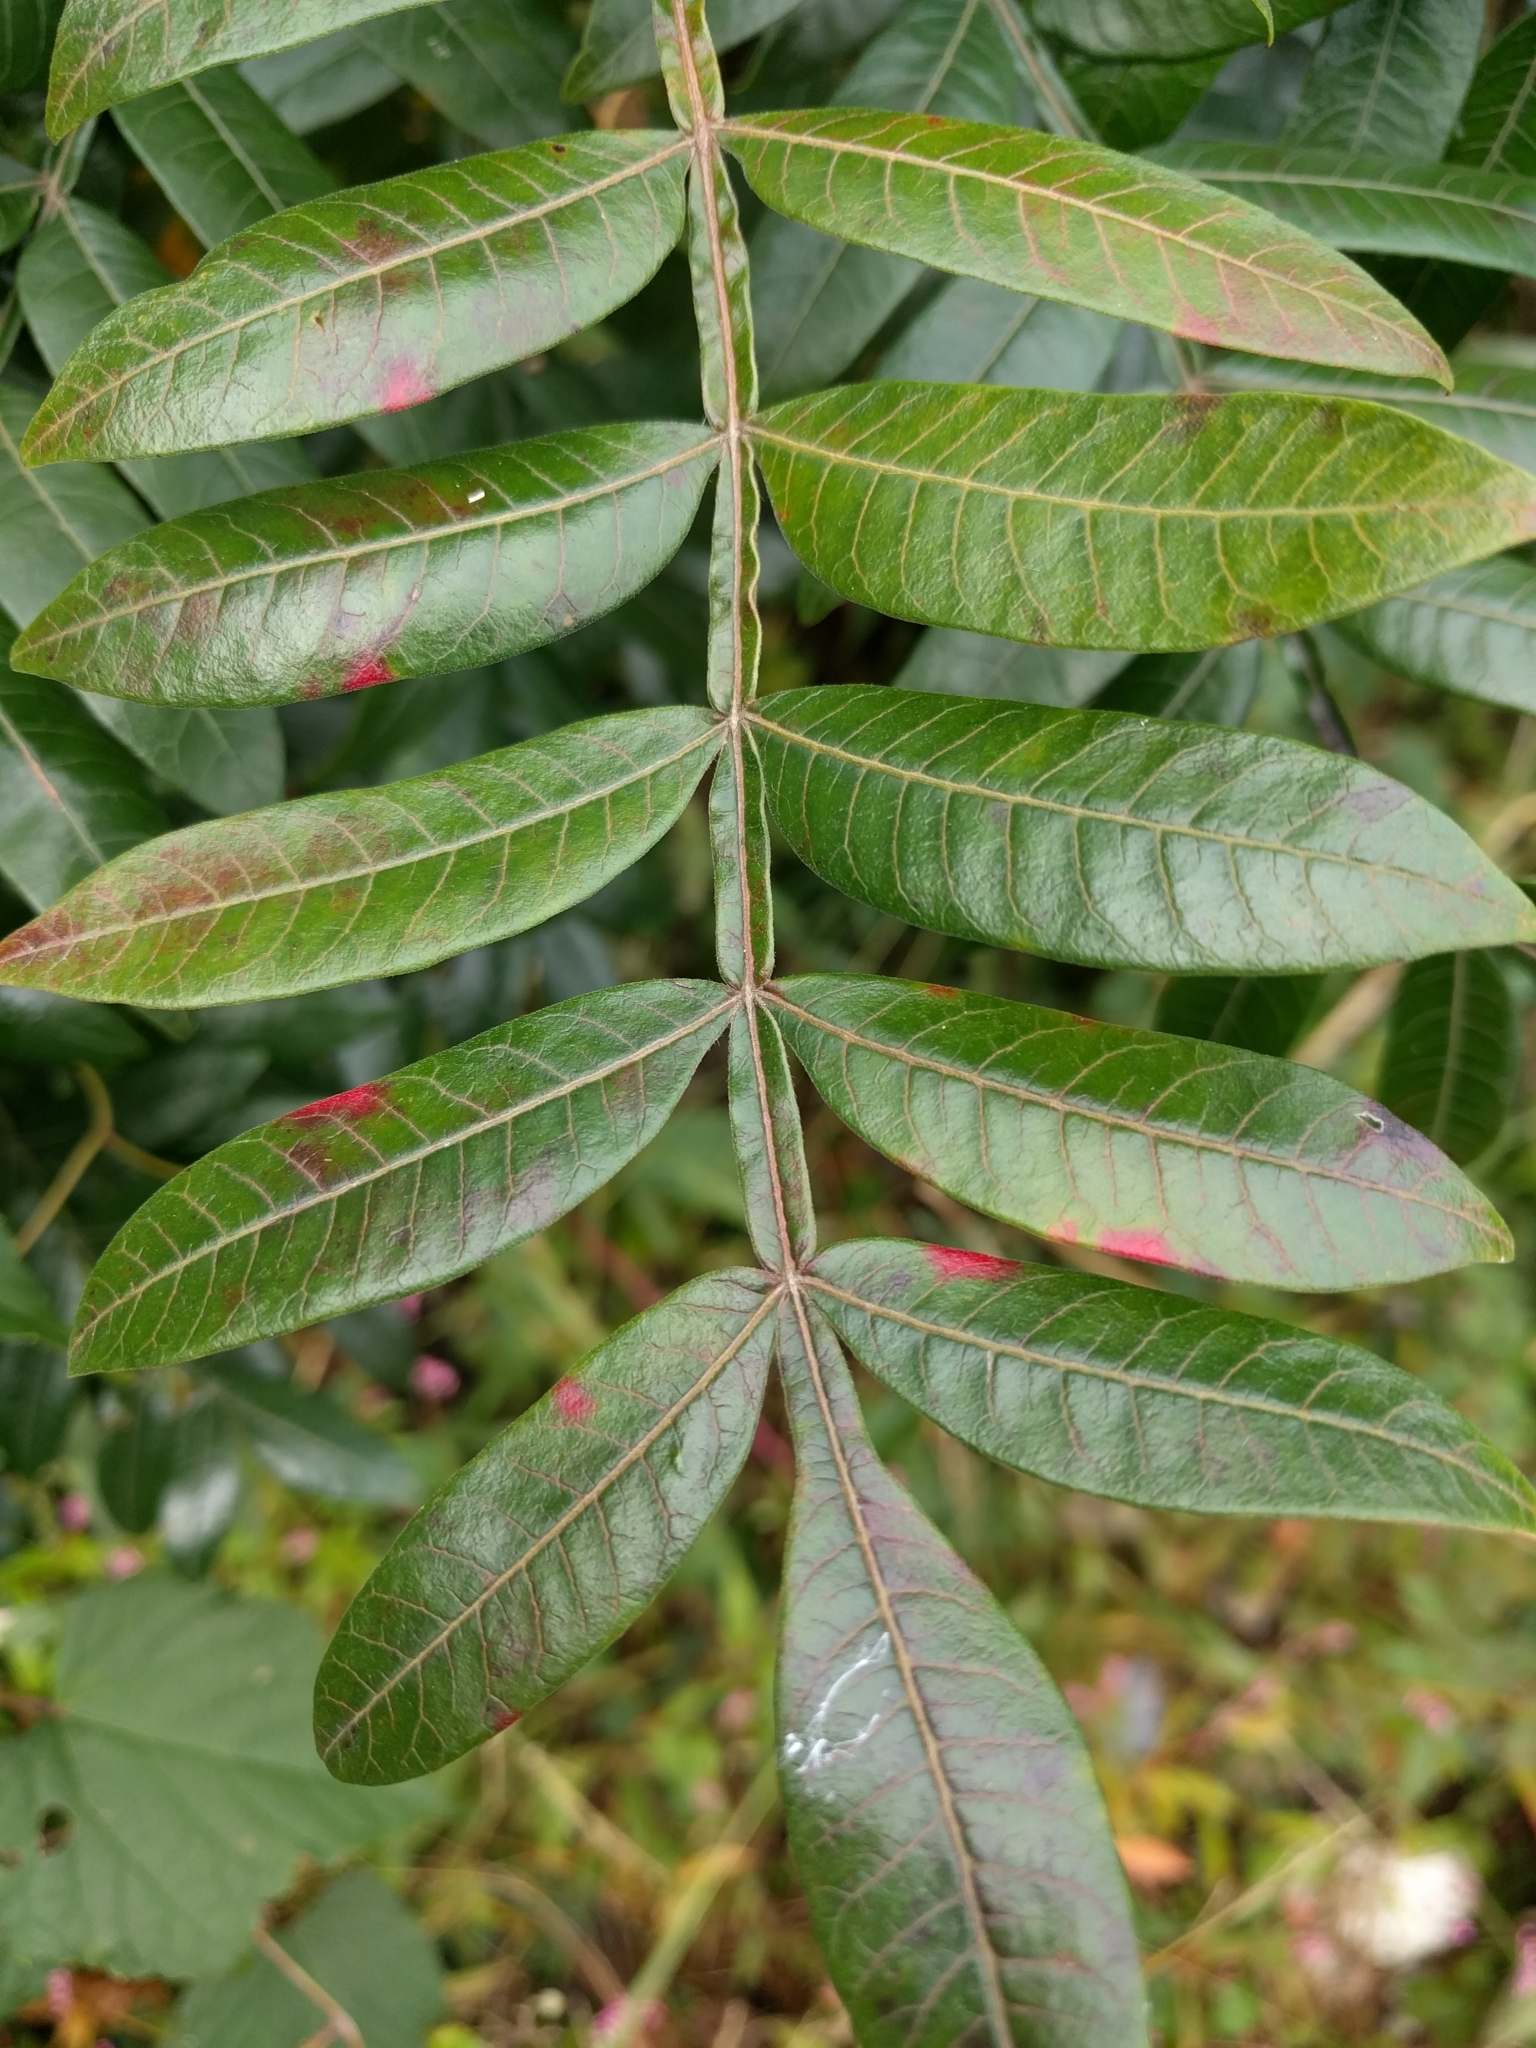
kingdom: Plantae
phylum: Tracheophyta
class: Magnoliopsida
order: Sapindales
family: Anacardiaceae
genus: Rhus
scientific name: Rhus copallina
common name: Shining sumac
